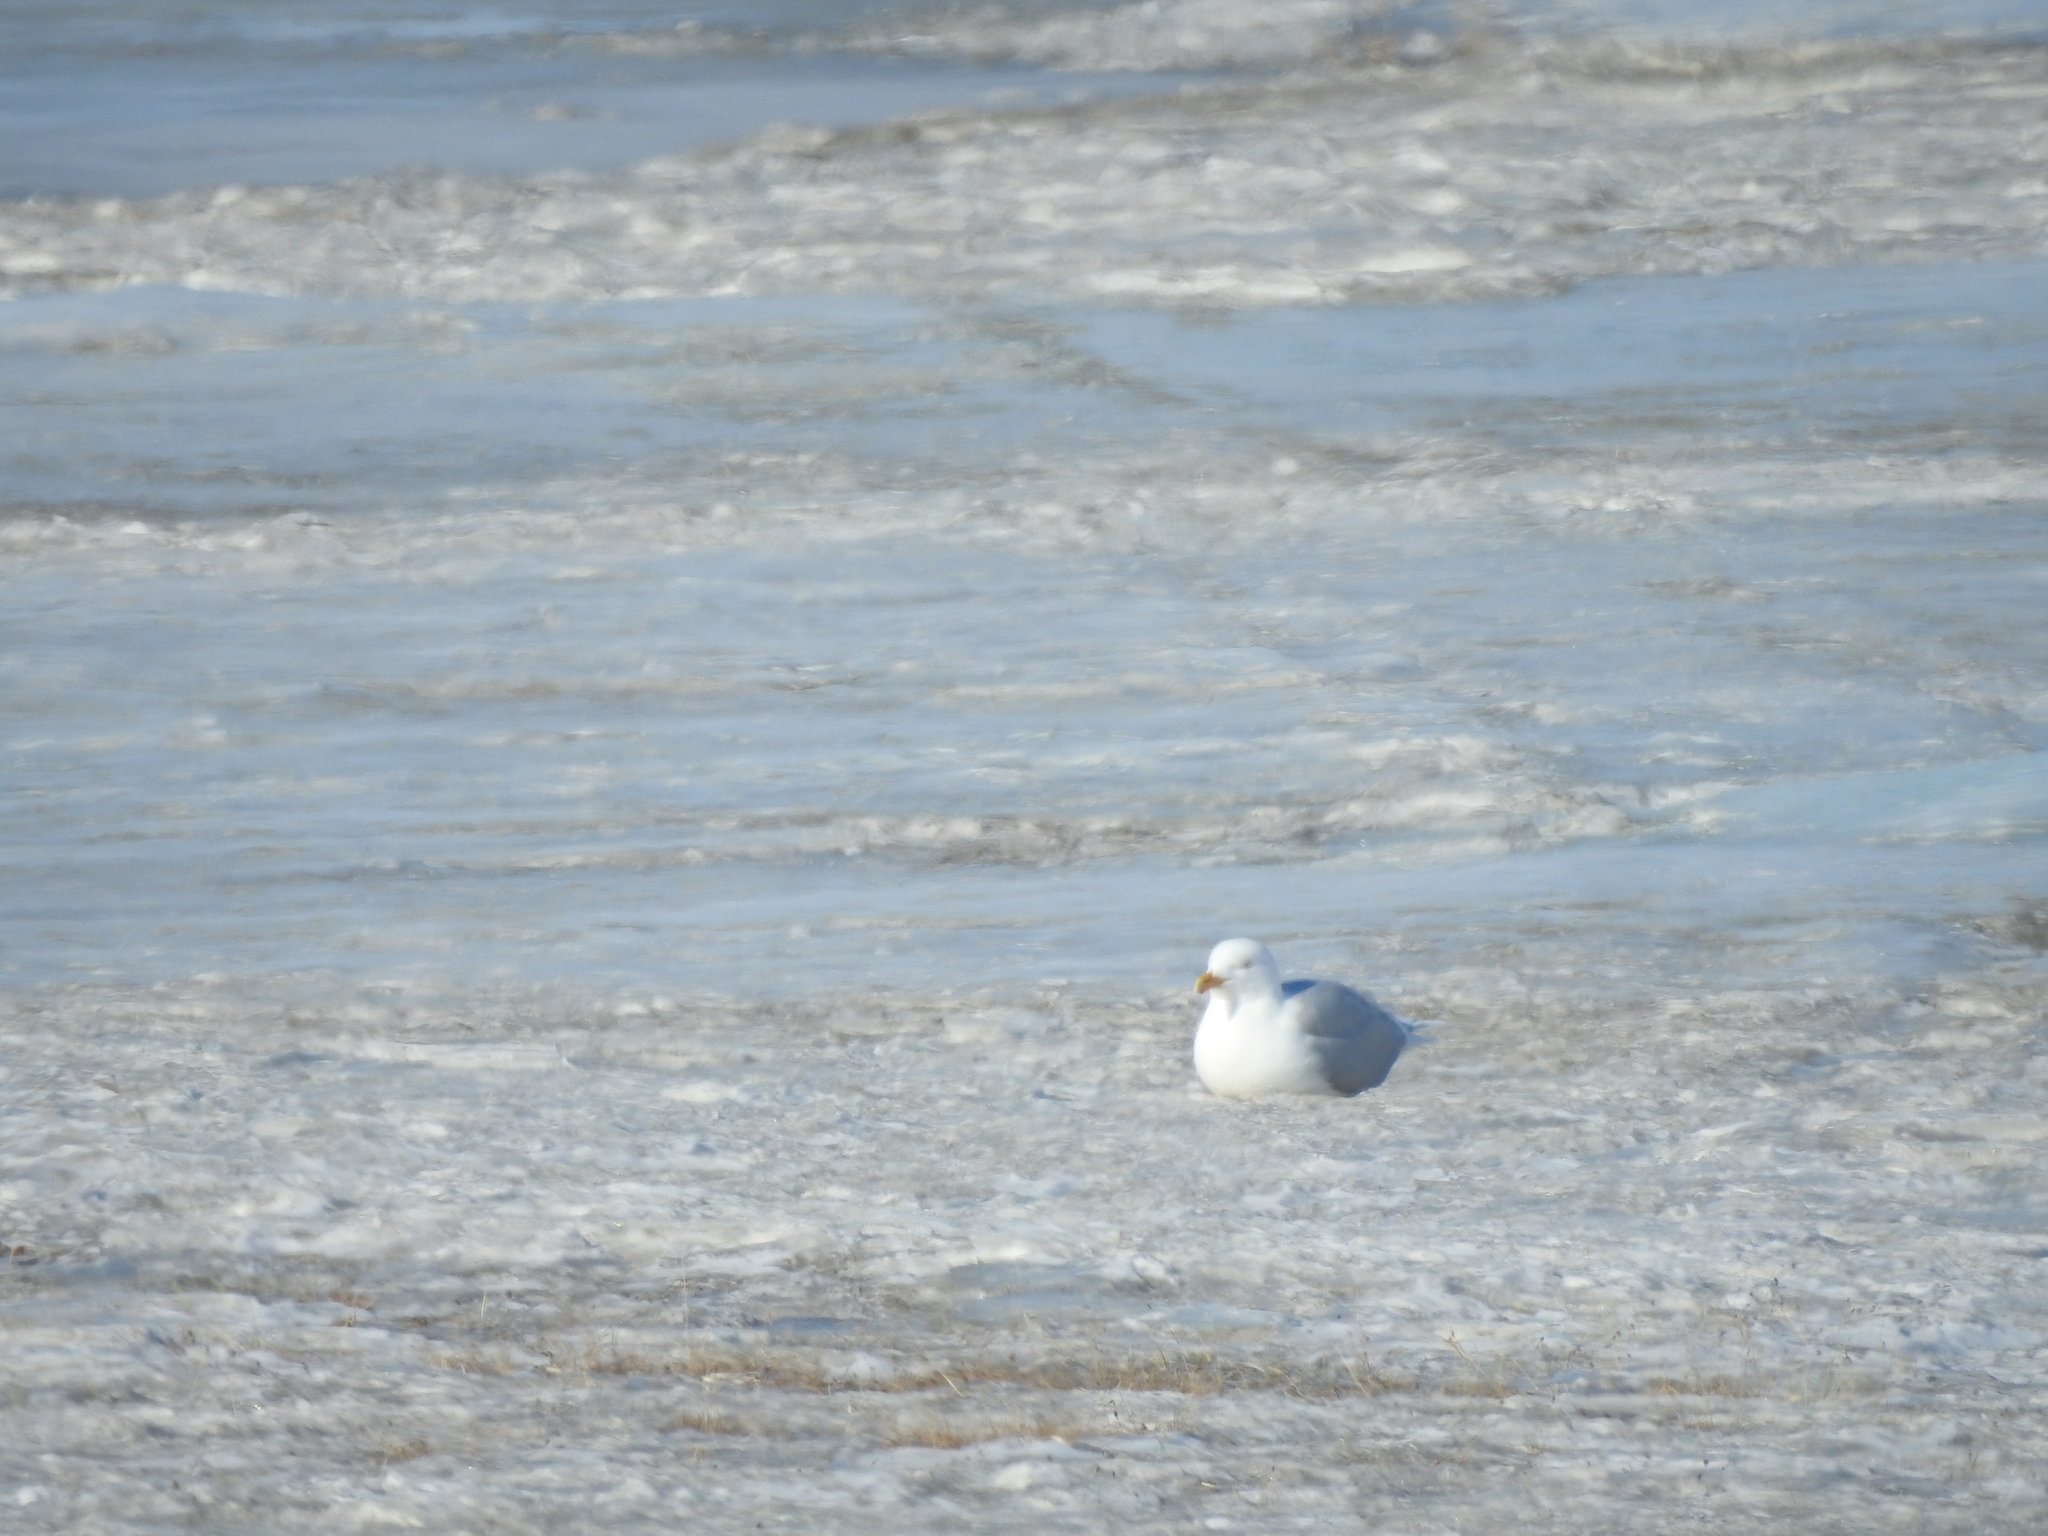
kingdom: Animalia
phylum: Chordata
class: Aves
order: Charadriiformes
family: Laridae
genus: Larus
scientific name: Larus hyperboreus
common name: Glaucous gull
